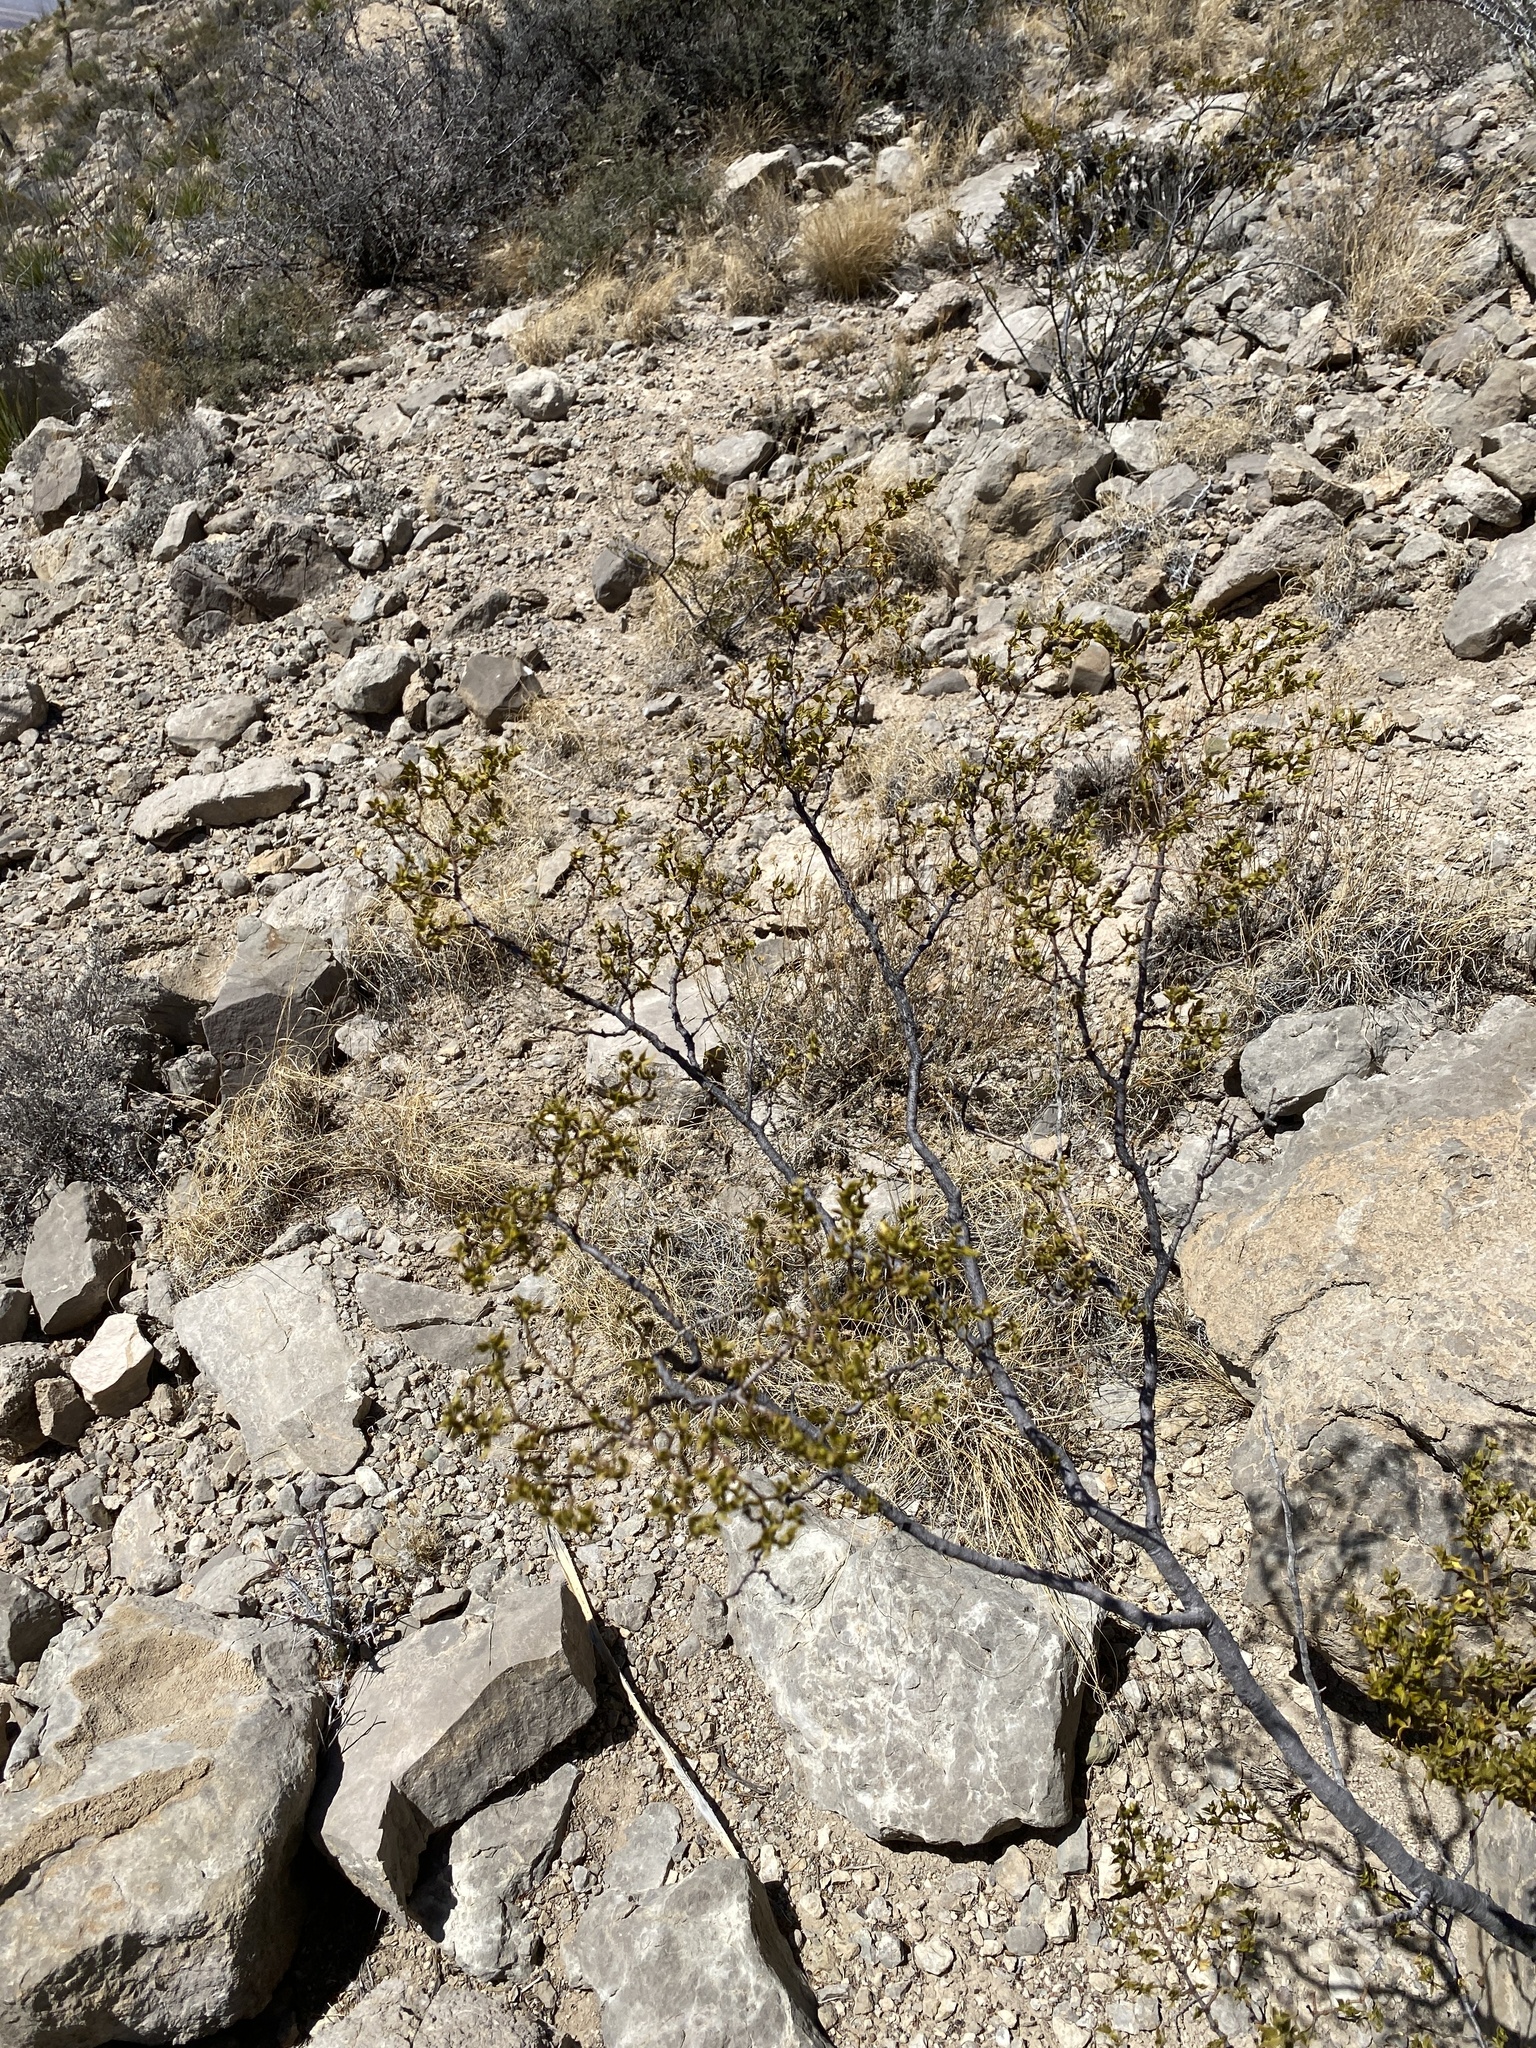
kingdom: Plantae
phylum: Tracheophyta
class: Magnoliopsida
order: Zygophyllales
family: Zygophyllaceae
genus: Larrea
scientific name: Larrea tridentata
